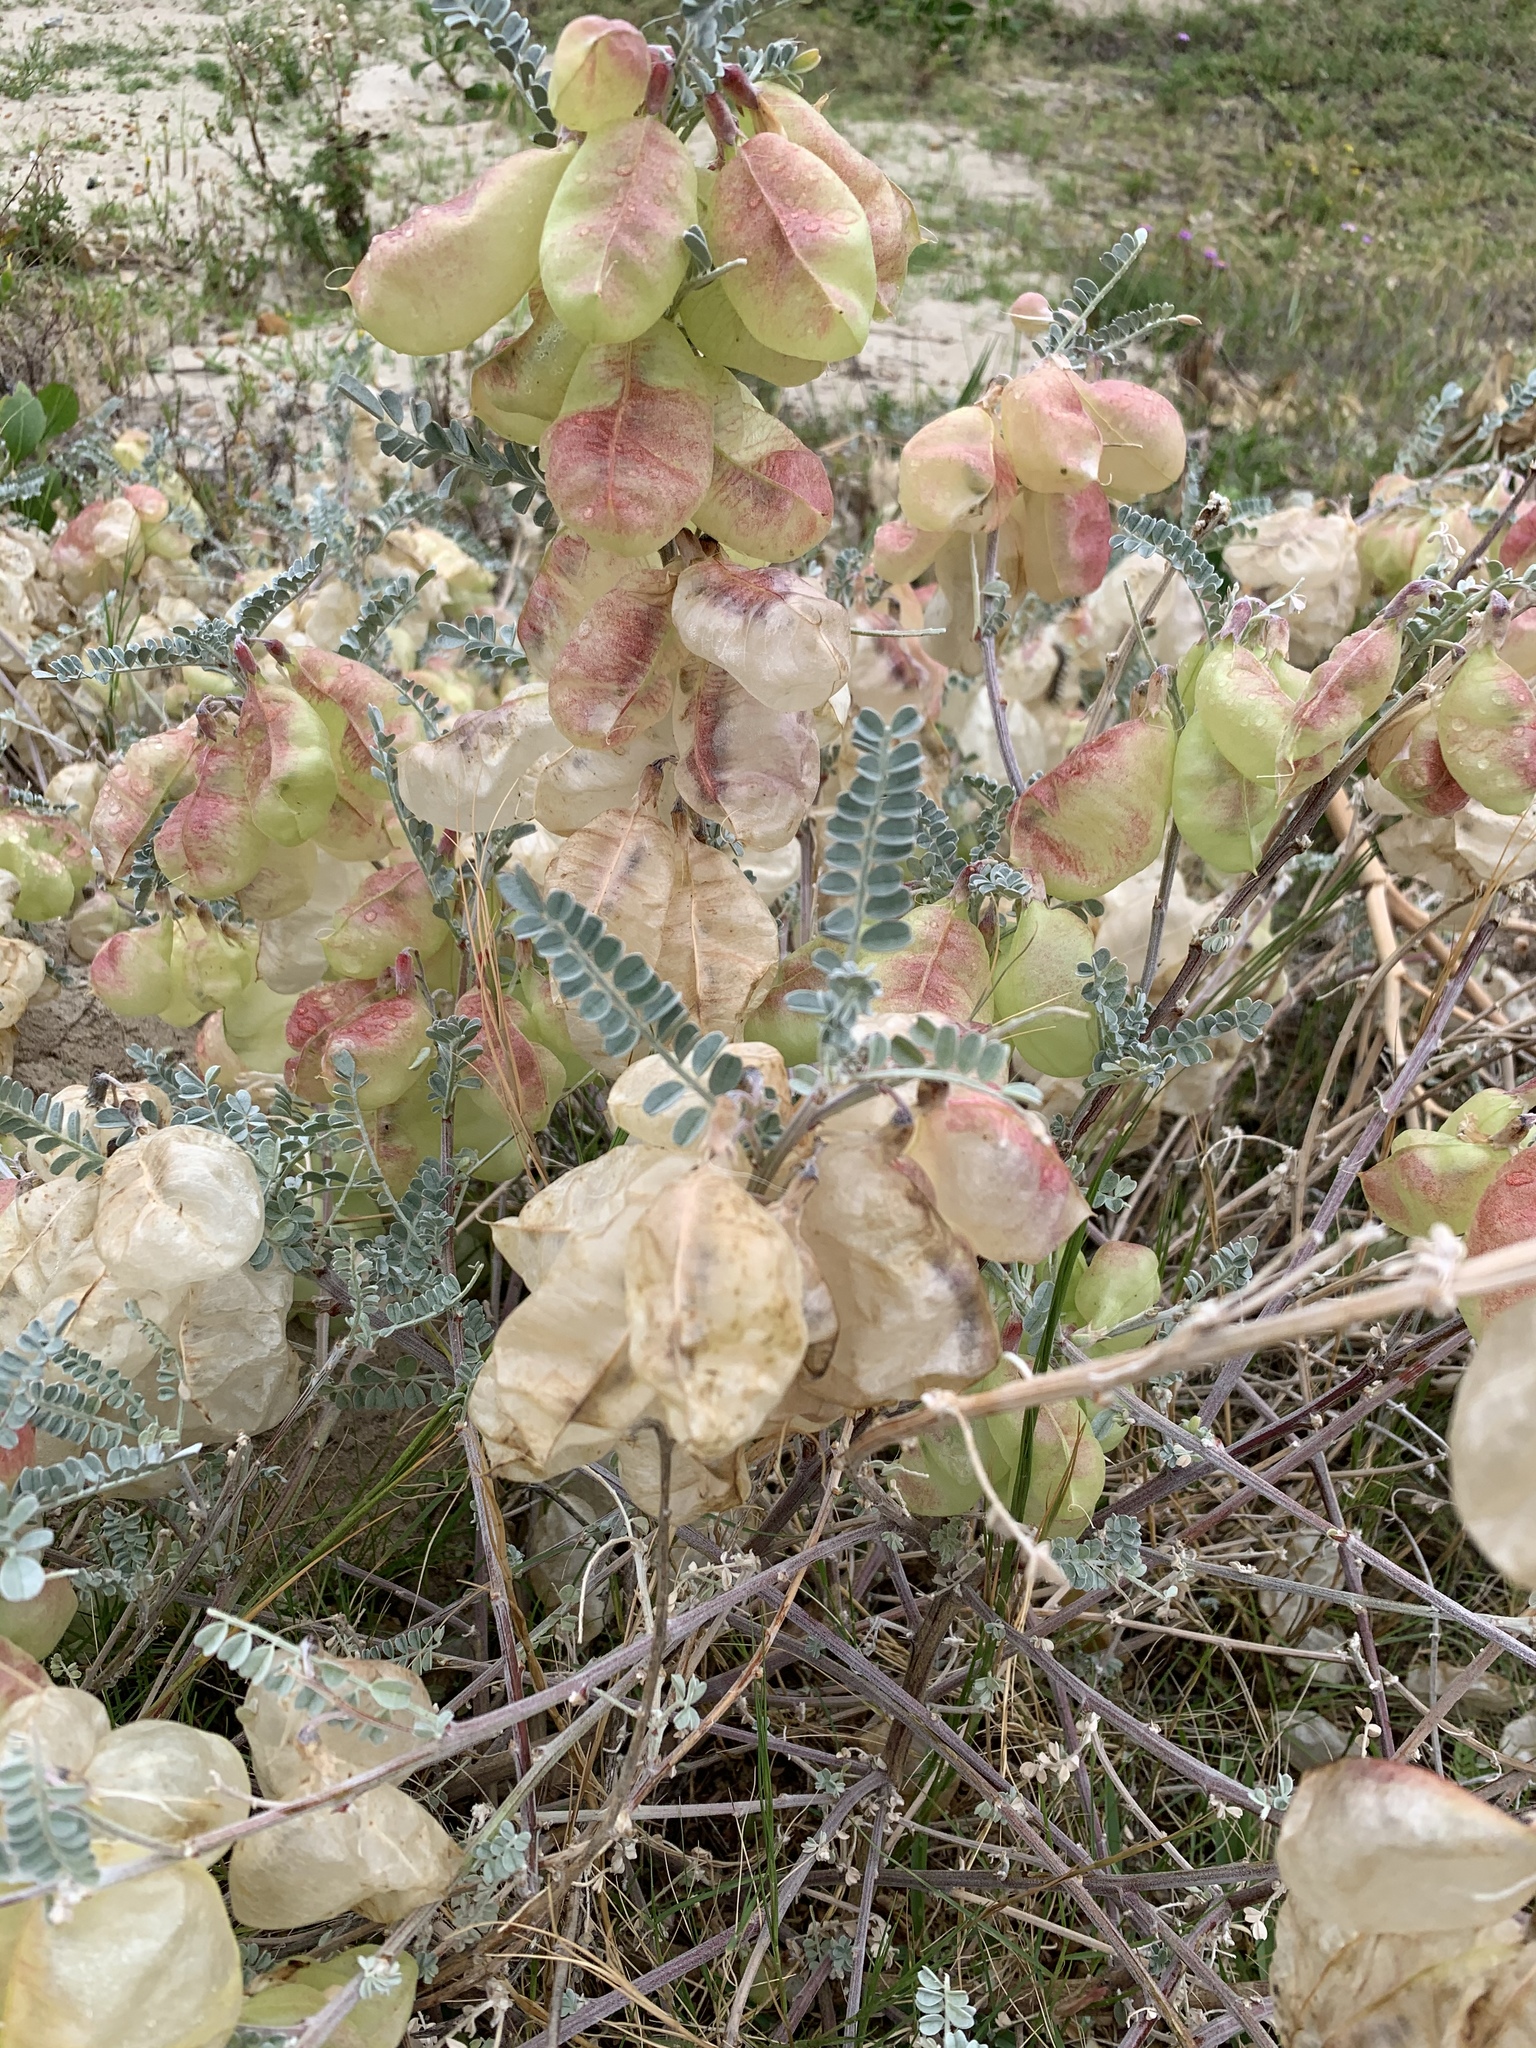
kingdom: Plantae
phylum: Tracheophyta
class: Magnoliopsida
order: Fabales
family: Fabaceae
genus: Lessertia
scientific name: Lessertia frutescens
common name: Balloon-pea
